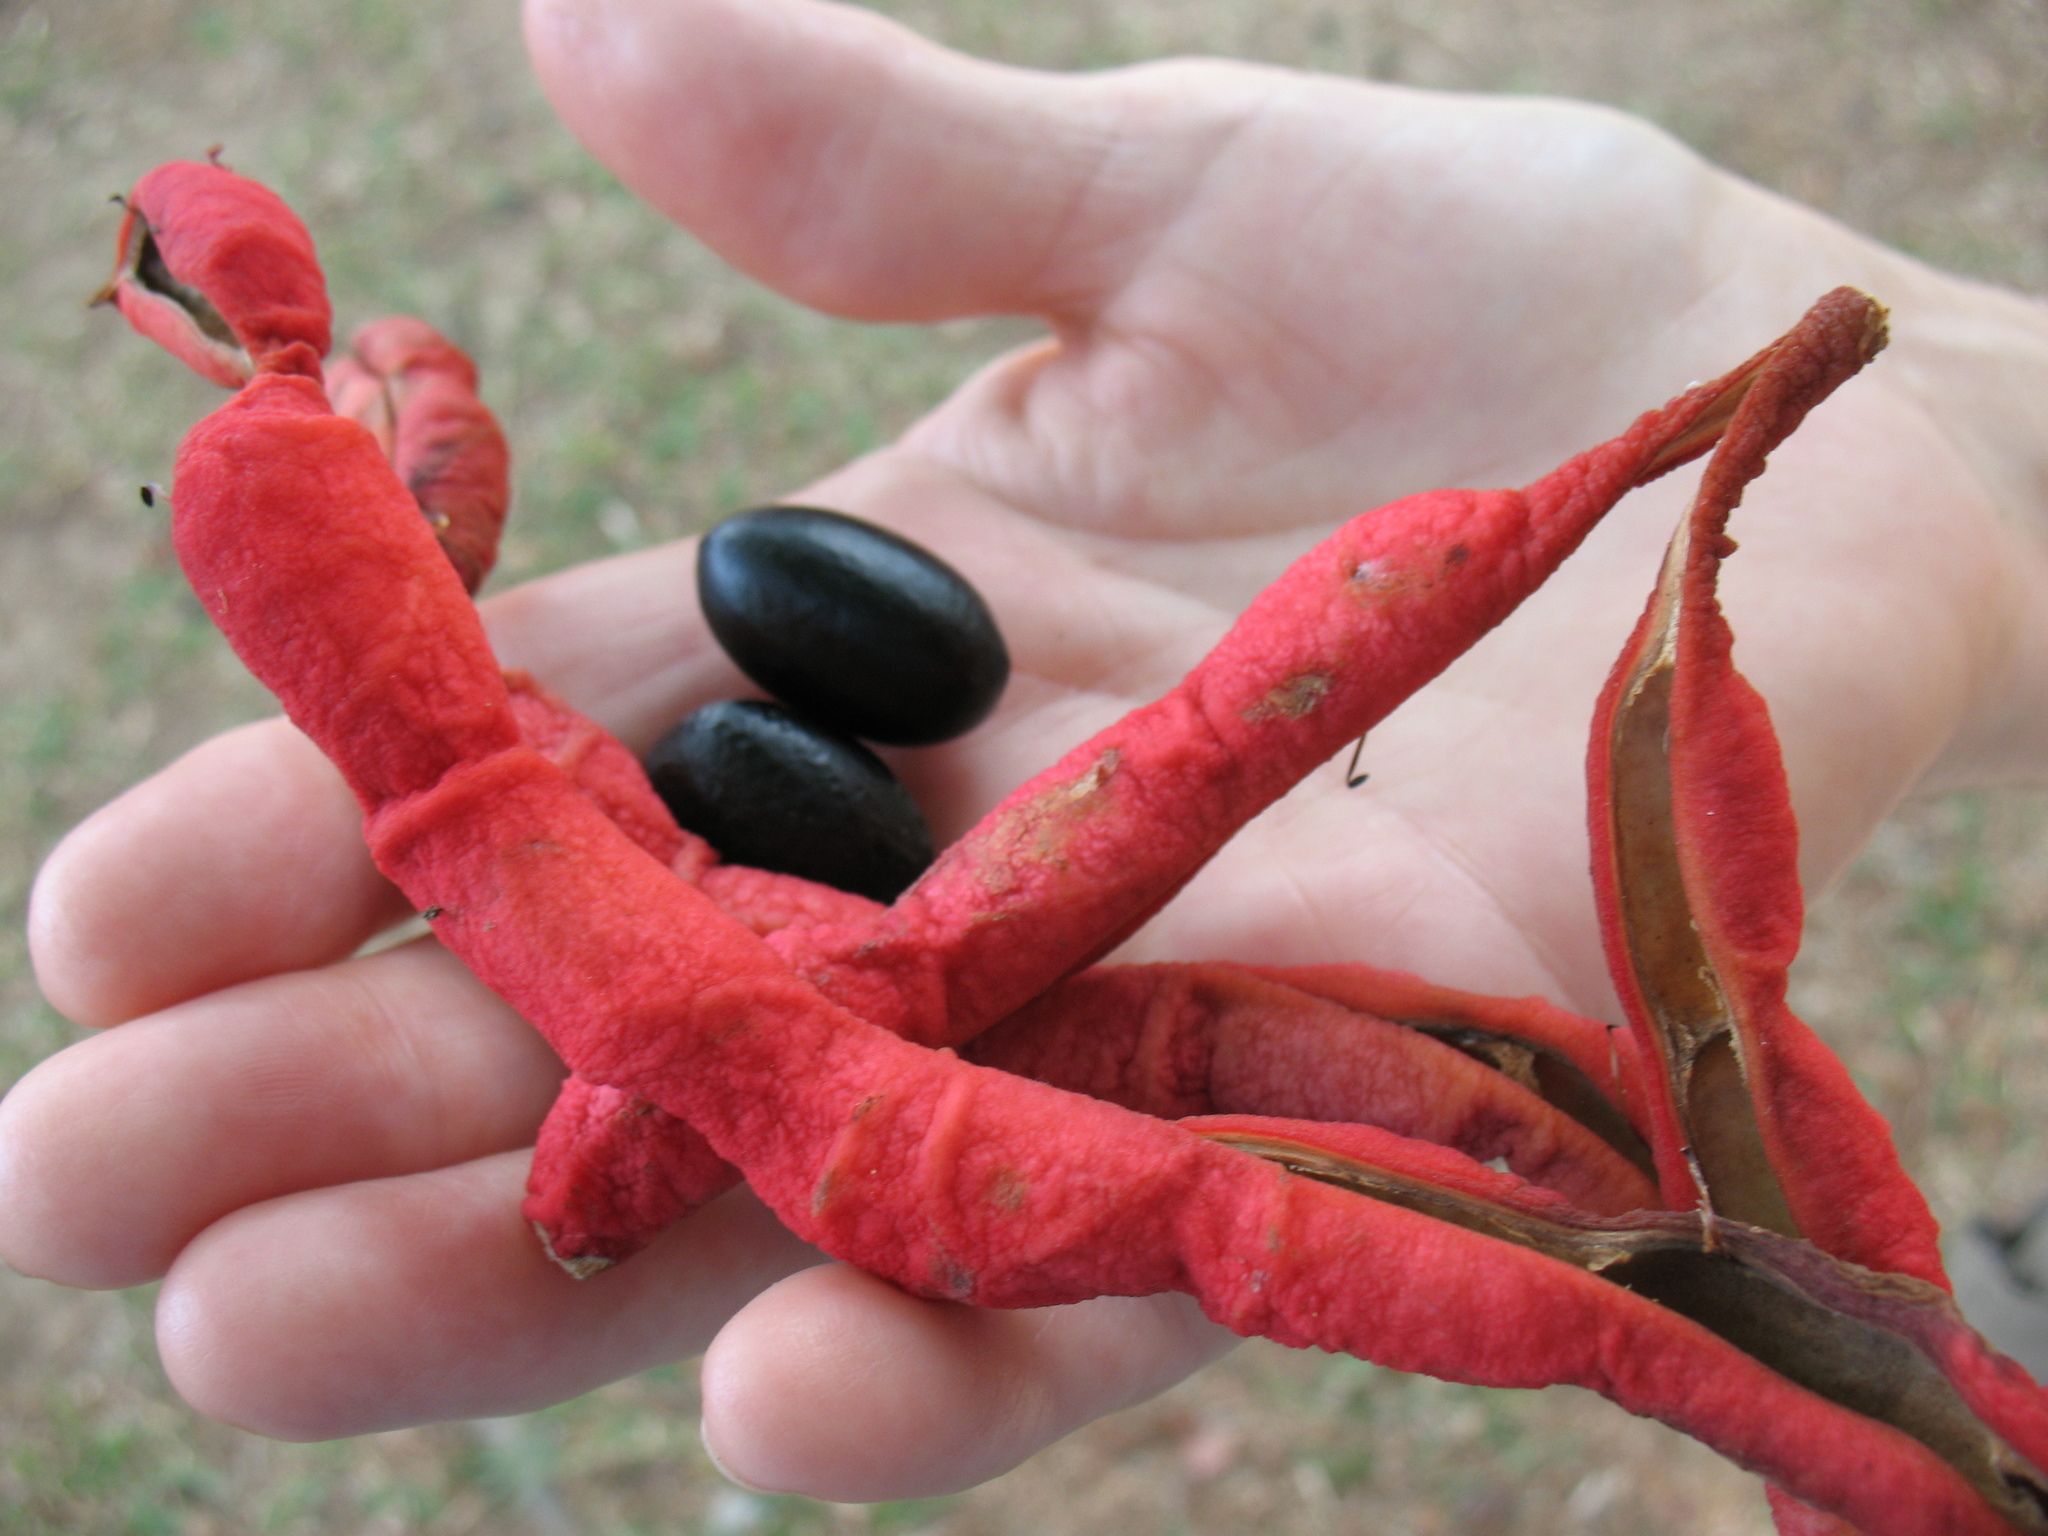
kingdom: Plantae
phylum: Tracheophyta
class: Magnoliopsida
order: Fabales
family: Fabaceae
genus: Cojoba
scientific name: Cojoba arborea
